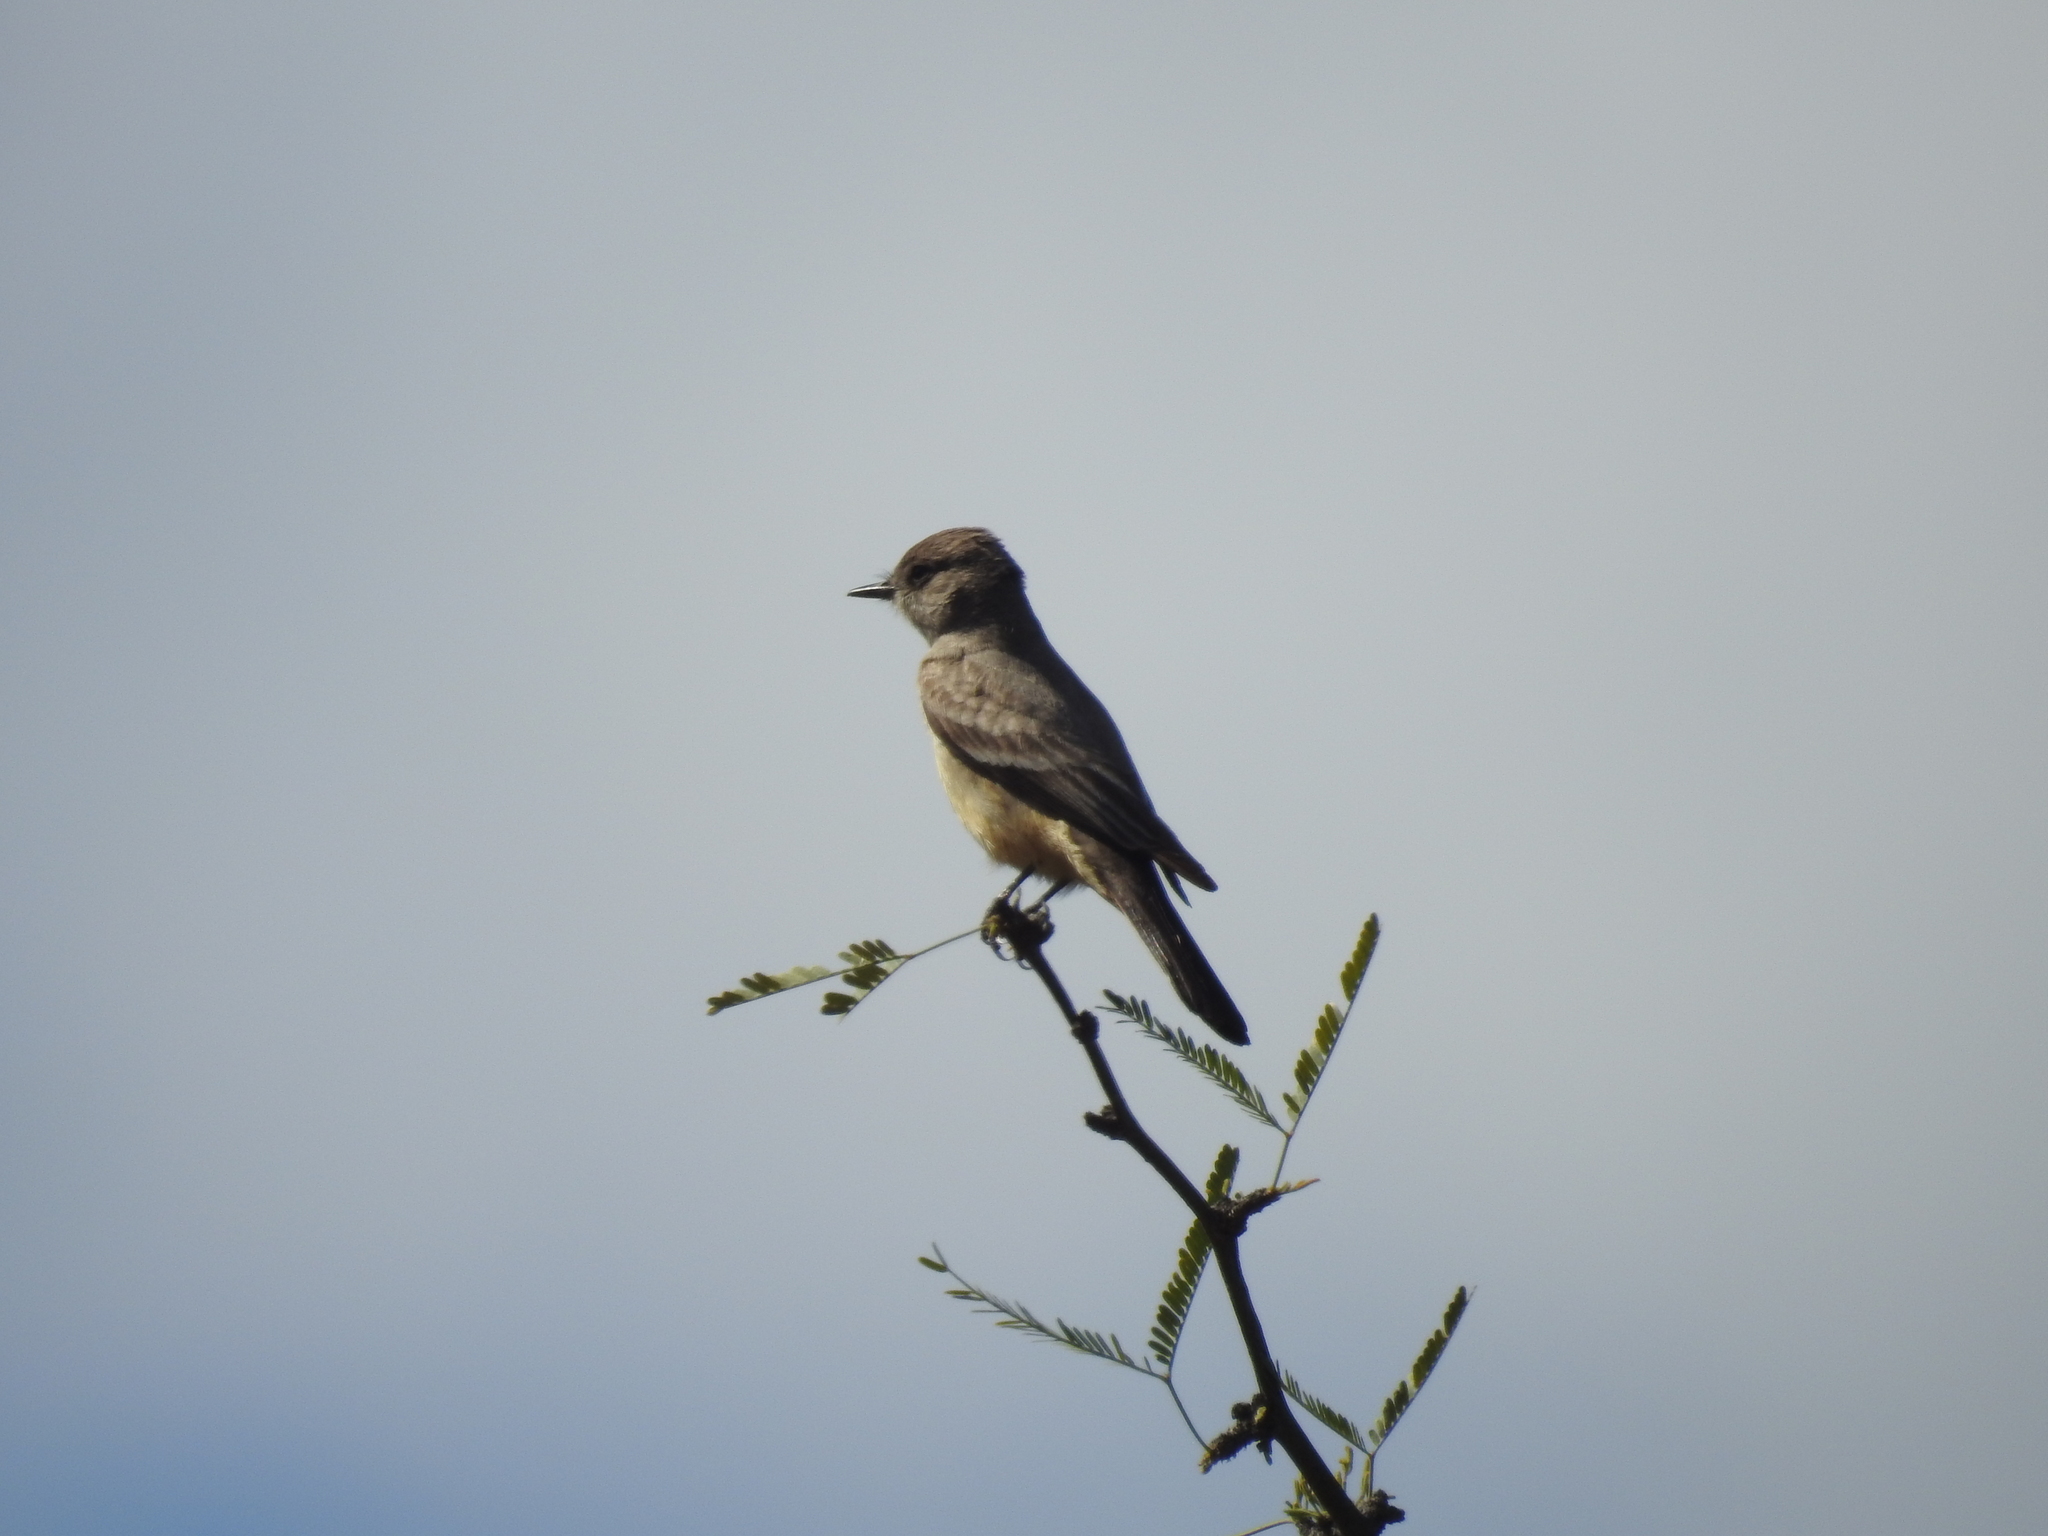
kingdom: Animalia
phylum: Chordata
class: Aves
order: Passeriformes
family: Tyrannidae
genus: Sayornis
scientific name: Sayornis saya
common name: Say's phoebe
